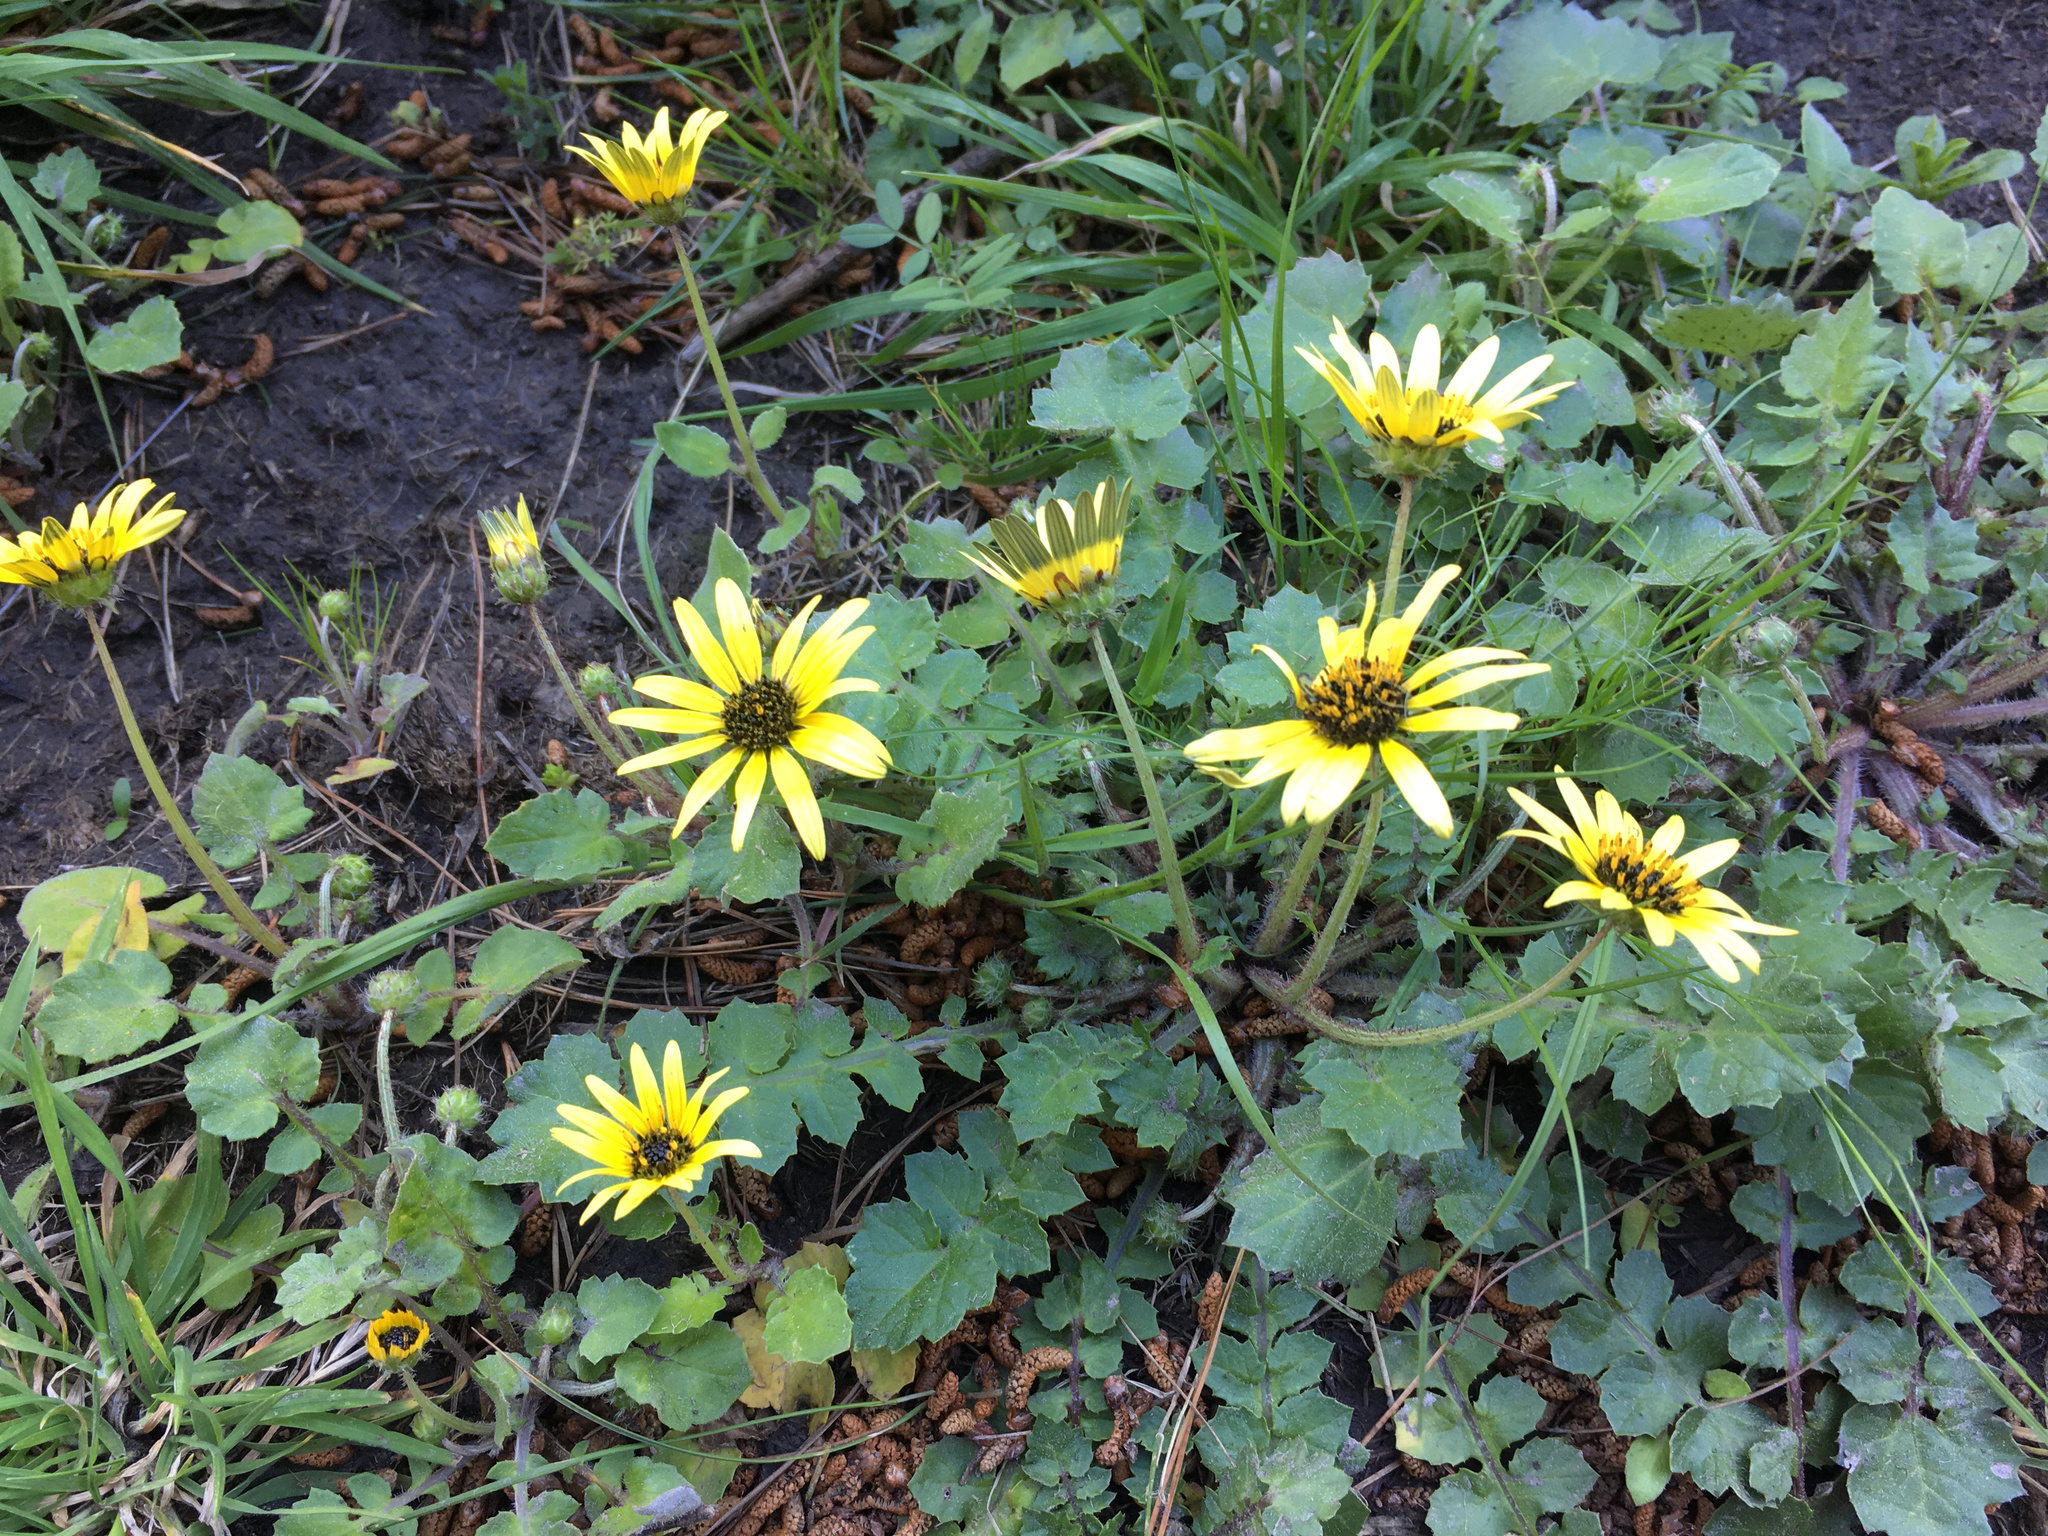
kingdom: Plantae
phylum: Tracheophyta
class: Magnoliopsida
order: Asterales
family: Asteraceae
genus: Arctotheca
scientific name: Arctotheca calendula
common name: Capeweed
